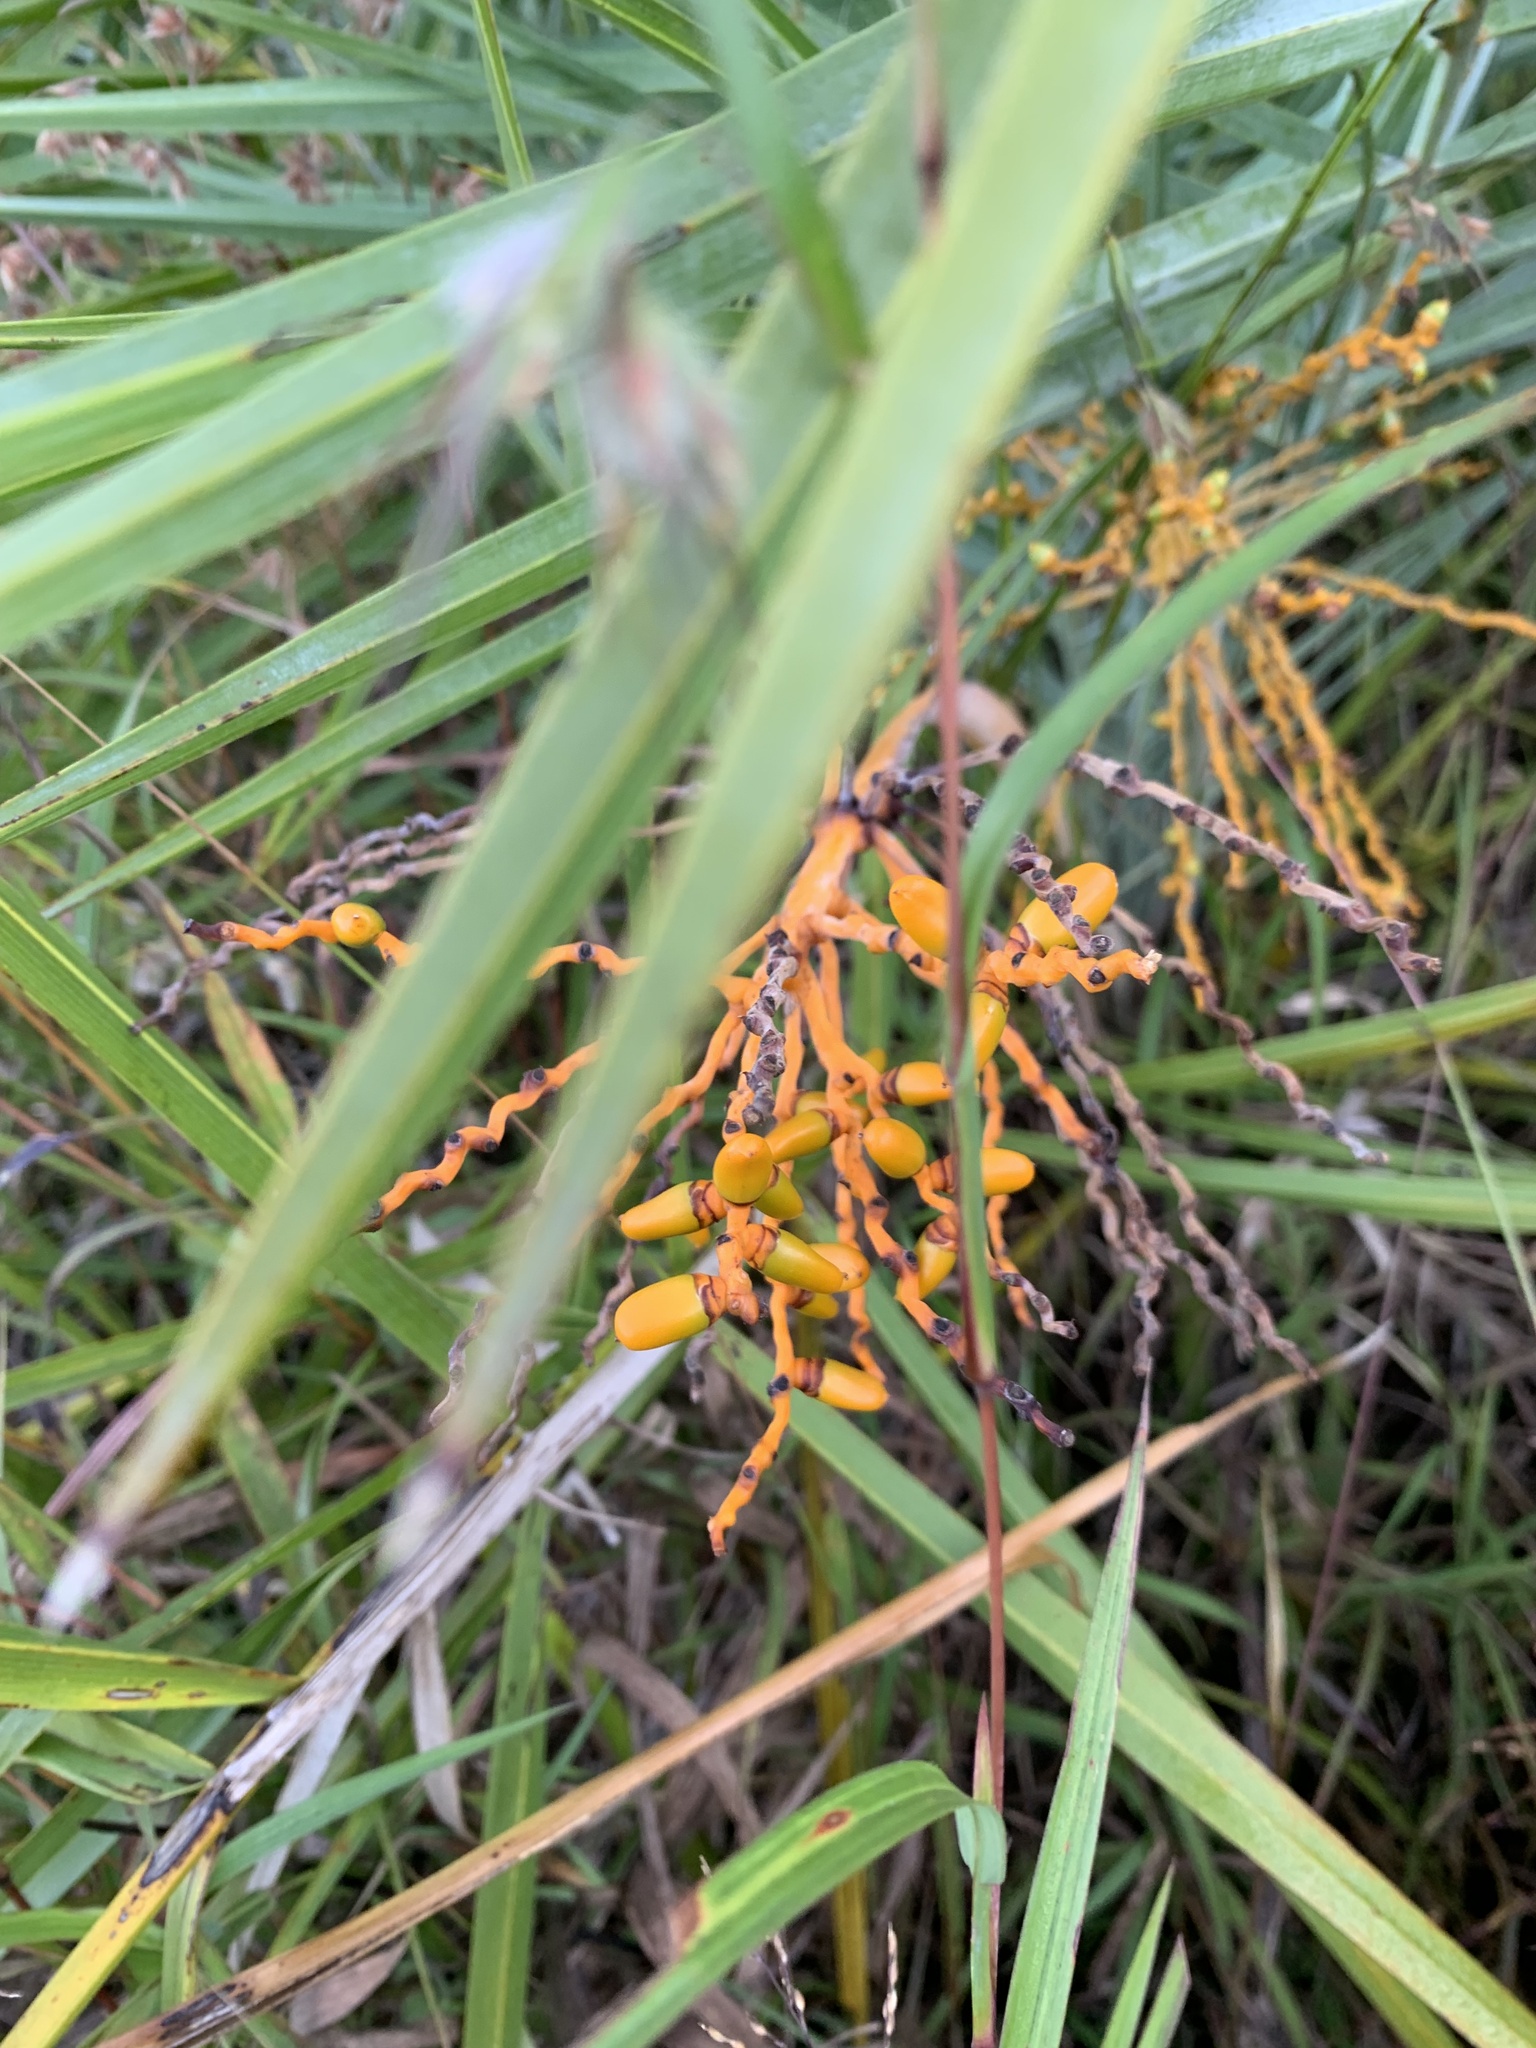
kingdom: Plantae
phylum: Tracheophyta
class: Liliopsida
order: Arecales
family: Arecaceae
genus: Phoenix
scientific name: Phoenix loureiroi
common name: Loureiro's palm
